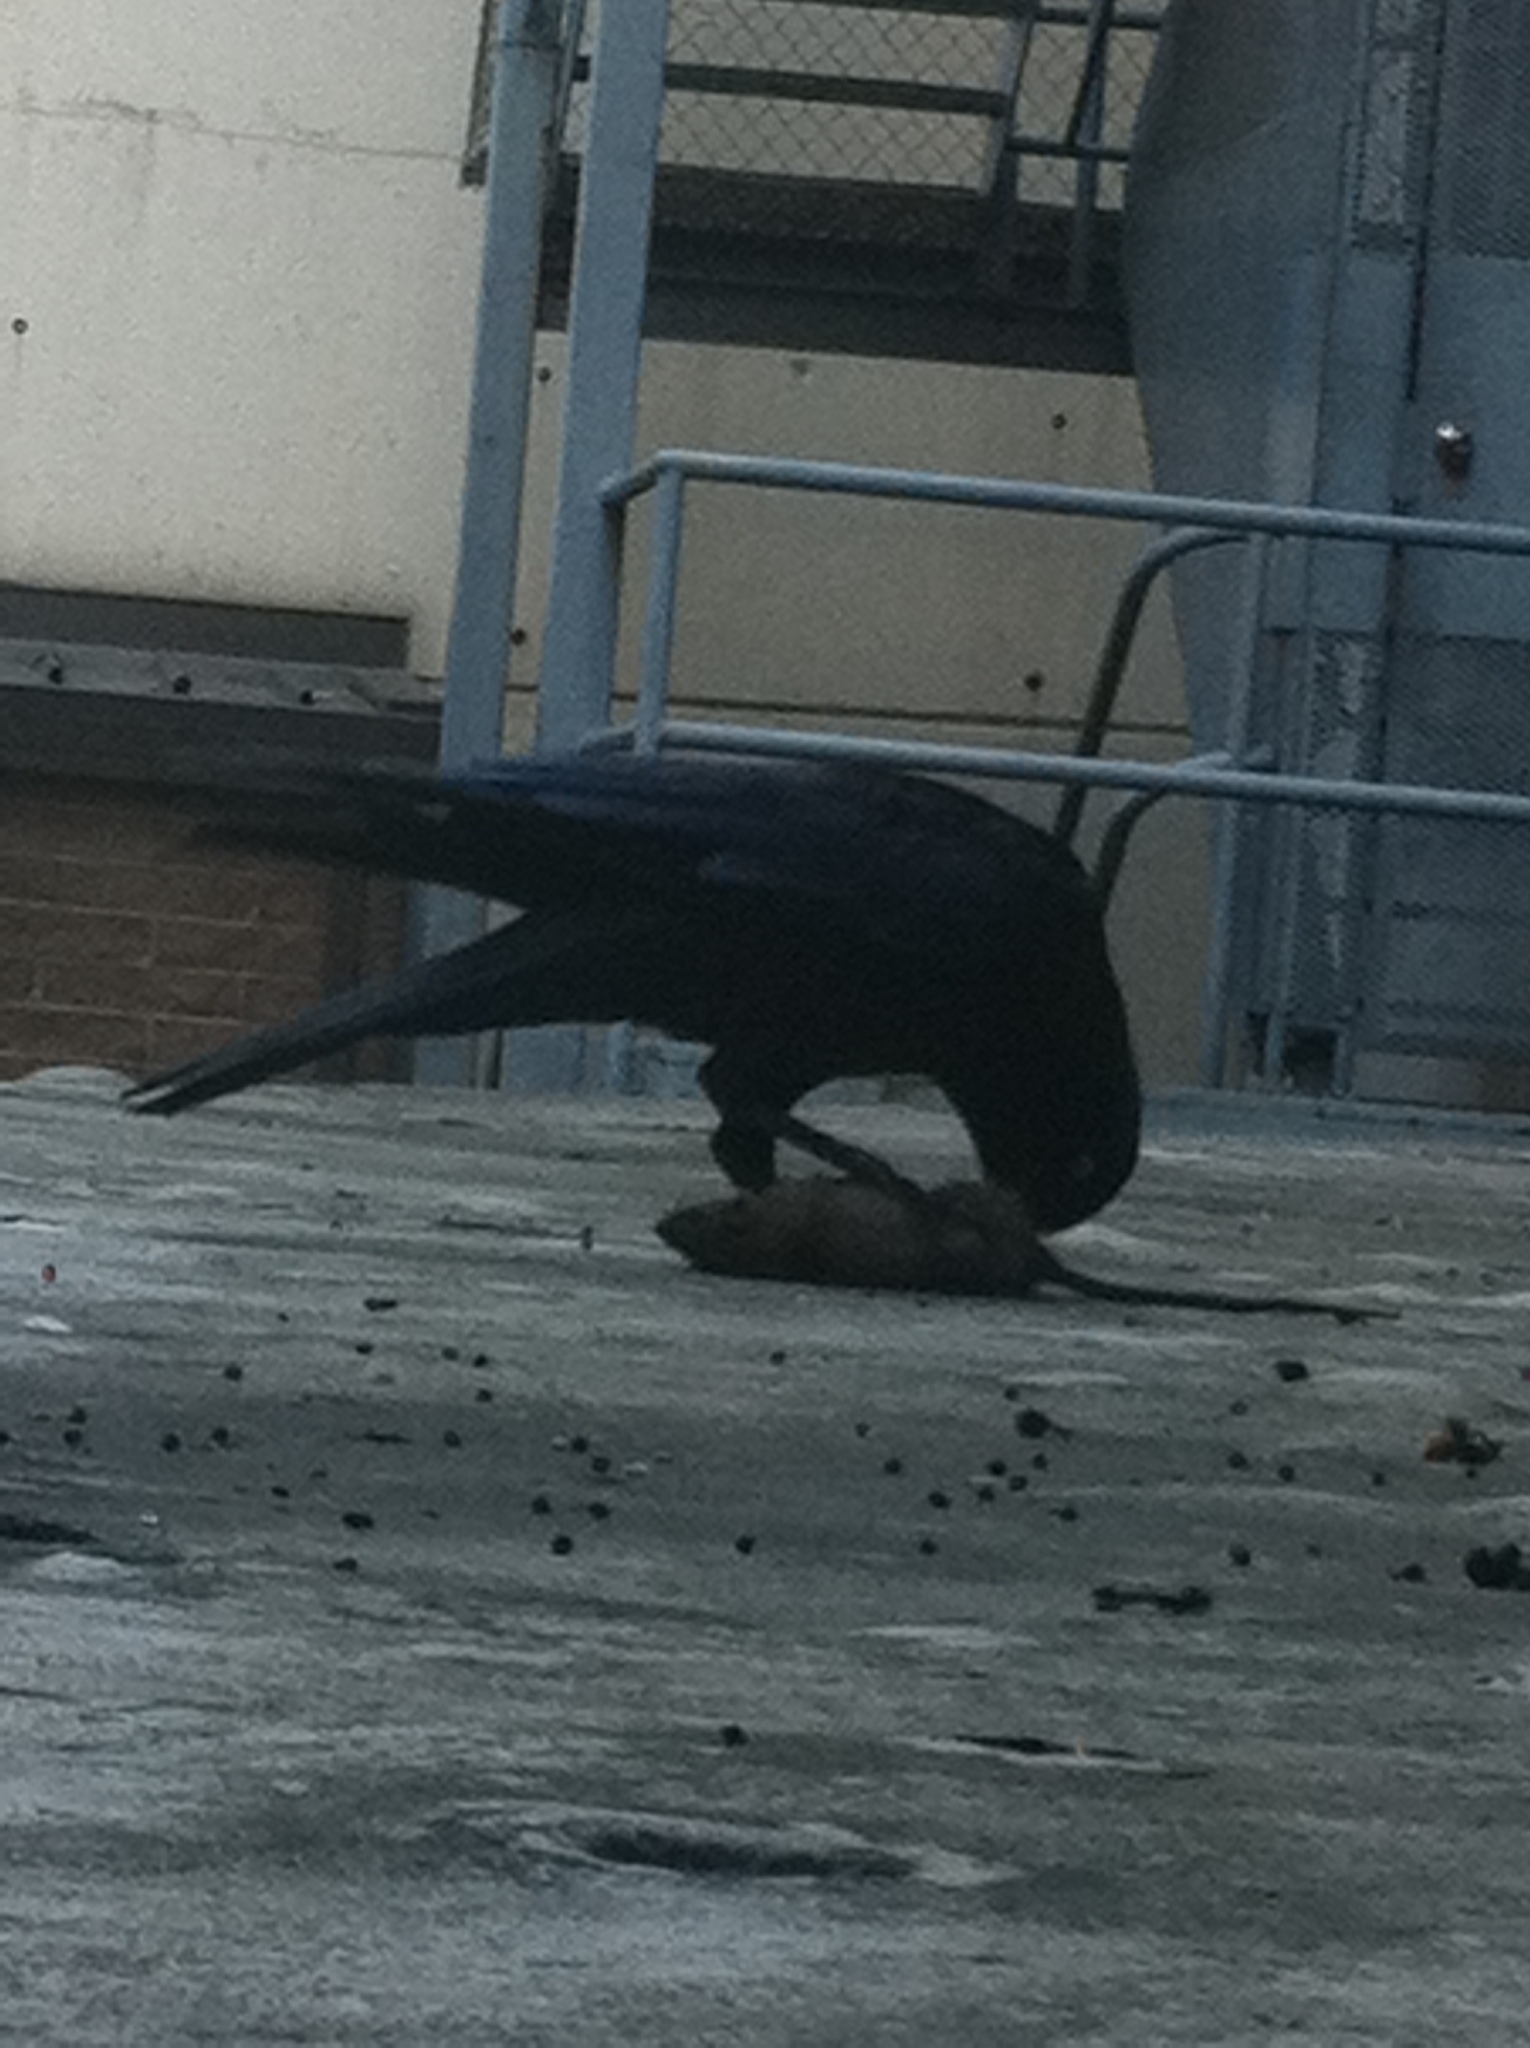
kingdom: Animalia
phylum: Chordata
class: Aves
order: Passeriformes
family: Corvidae
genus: Corvus
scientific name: Corvus orru
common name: Torresian crow
